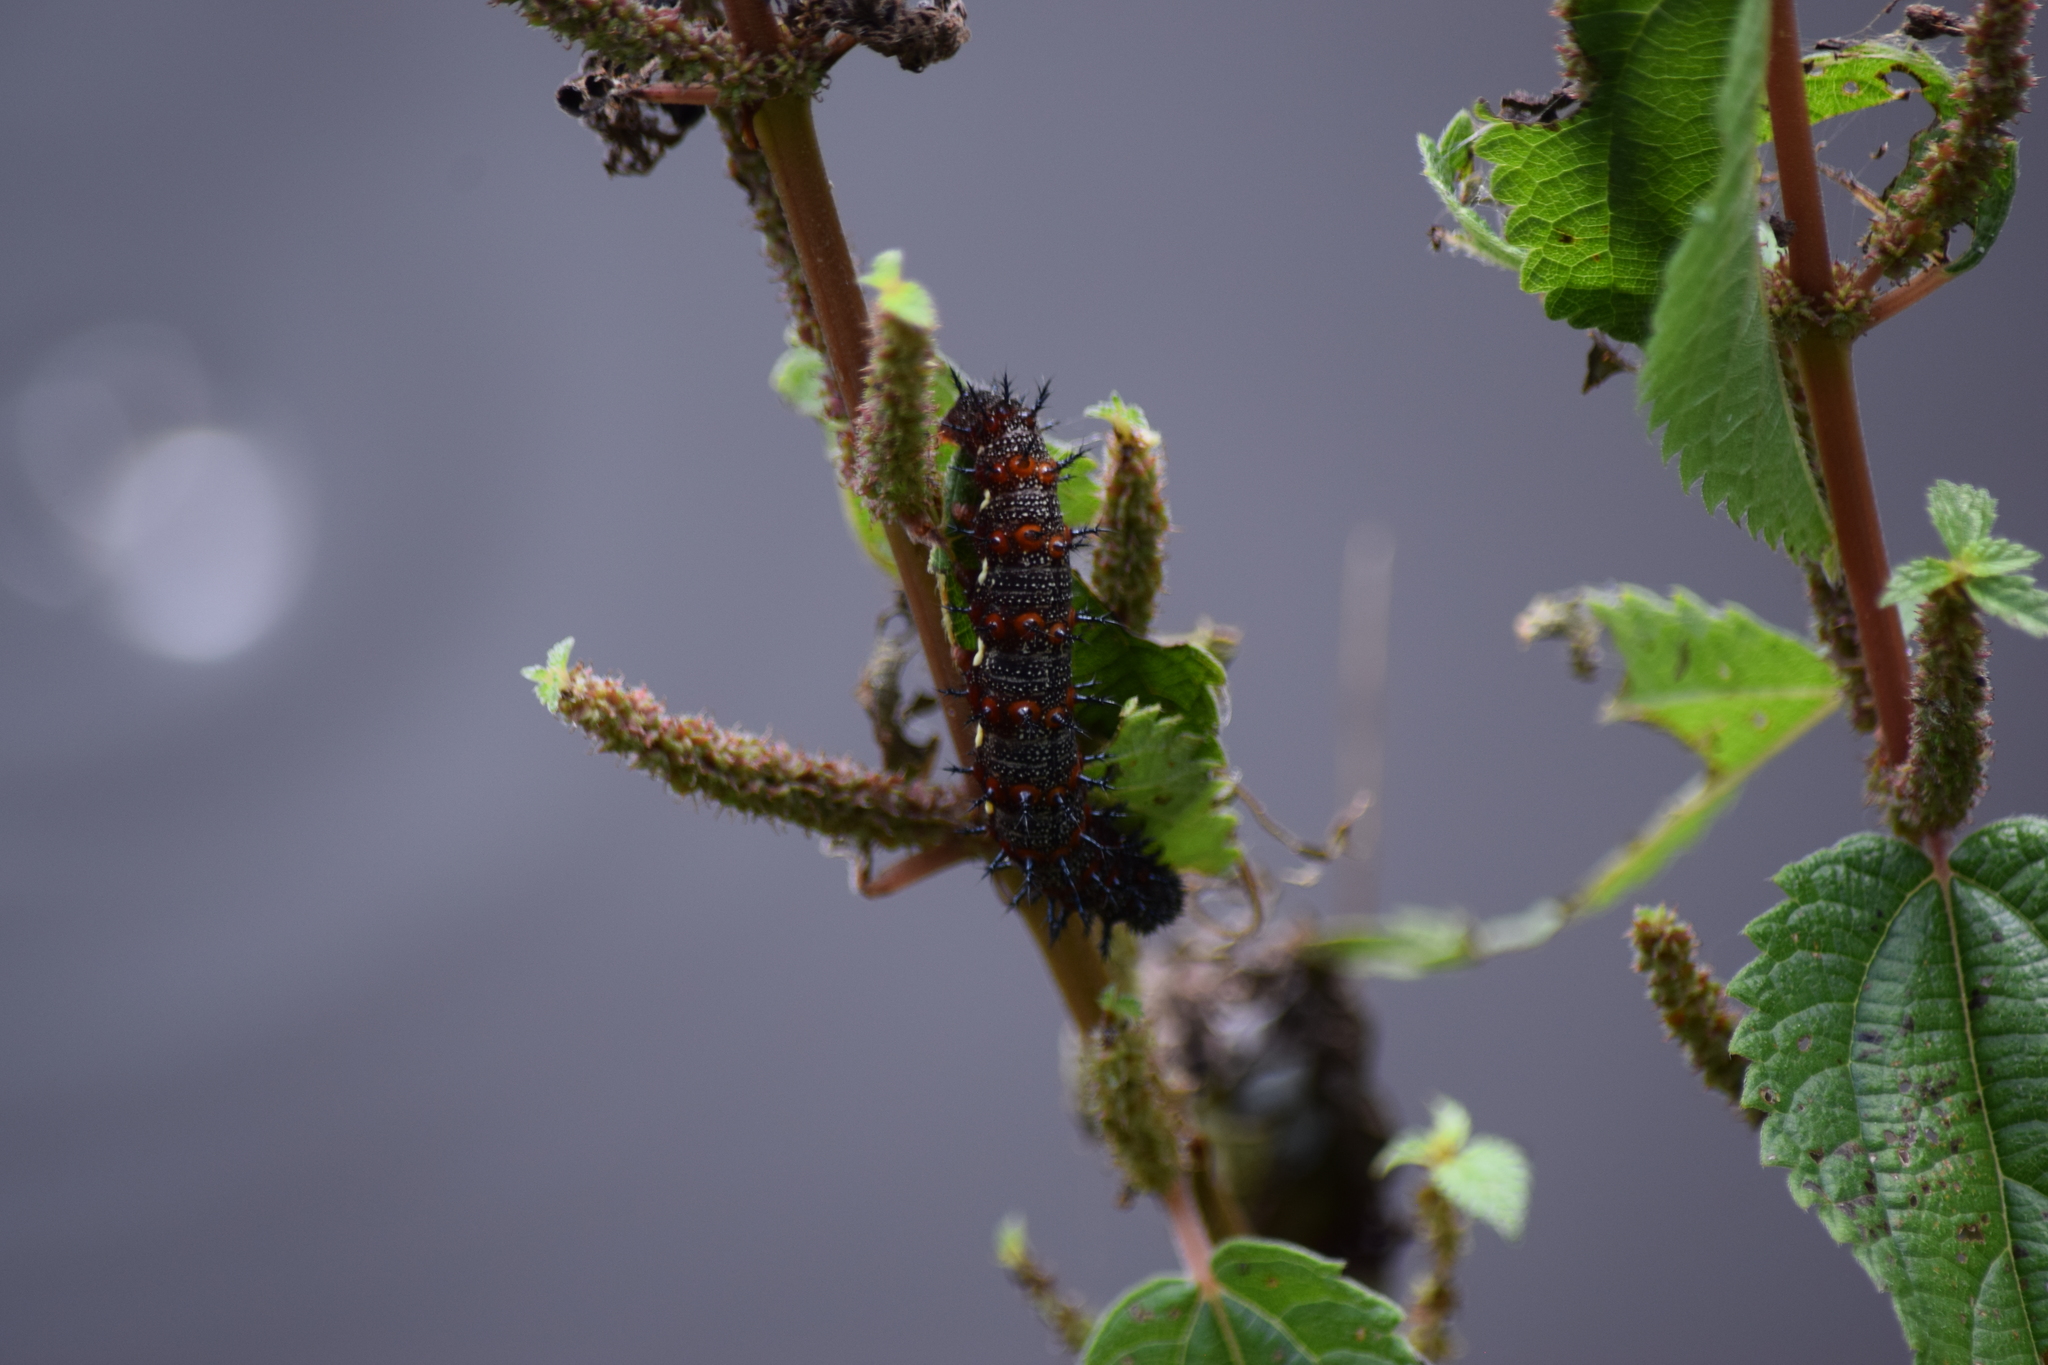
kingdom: Animalia
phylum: Arthropoda
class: Insecta
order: Lepidoptera
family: Nymphalidae
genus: Nymphalis
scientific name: Nymphalis antiopa
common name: Camberwell beauty
